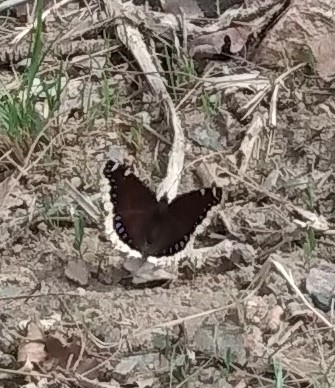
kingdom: Animalia
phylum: Arthropoda
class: Insecta
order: Lepidoptera
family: Nymphalidae
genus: Nymphalis
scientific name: Nymphalis antiopa
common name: Camberwell beauty
